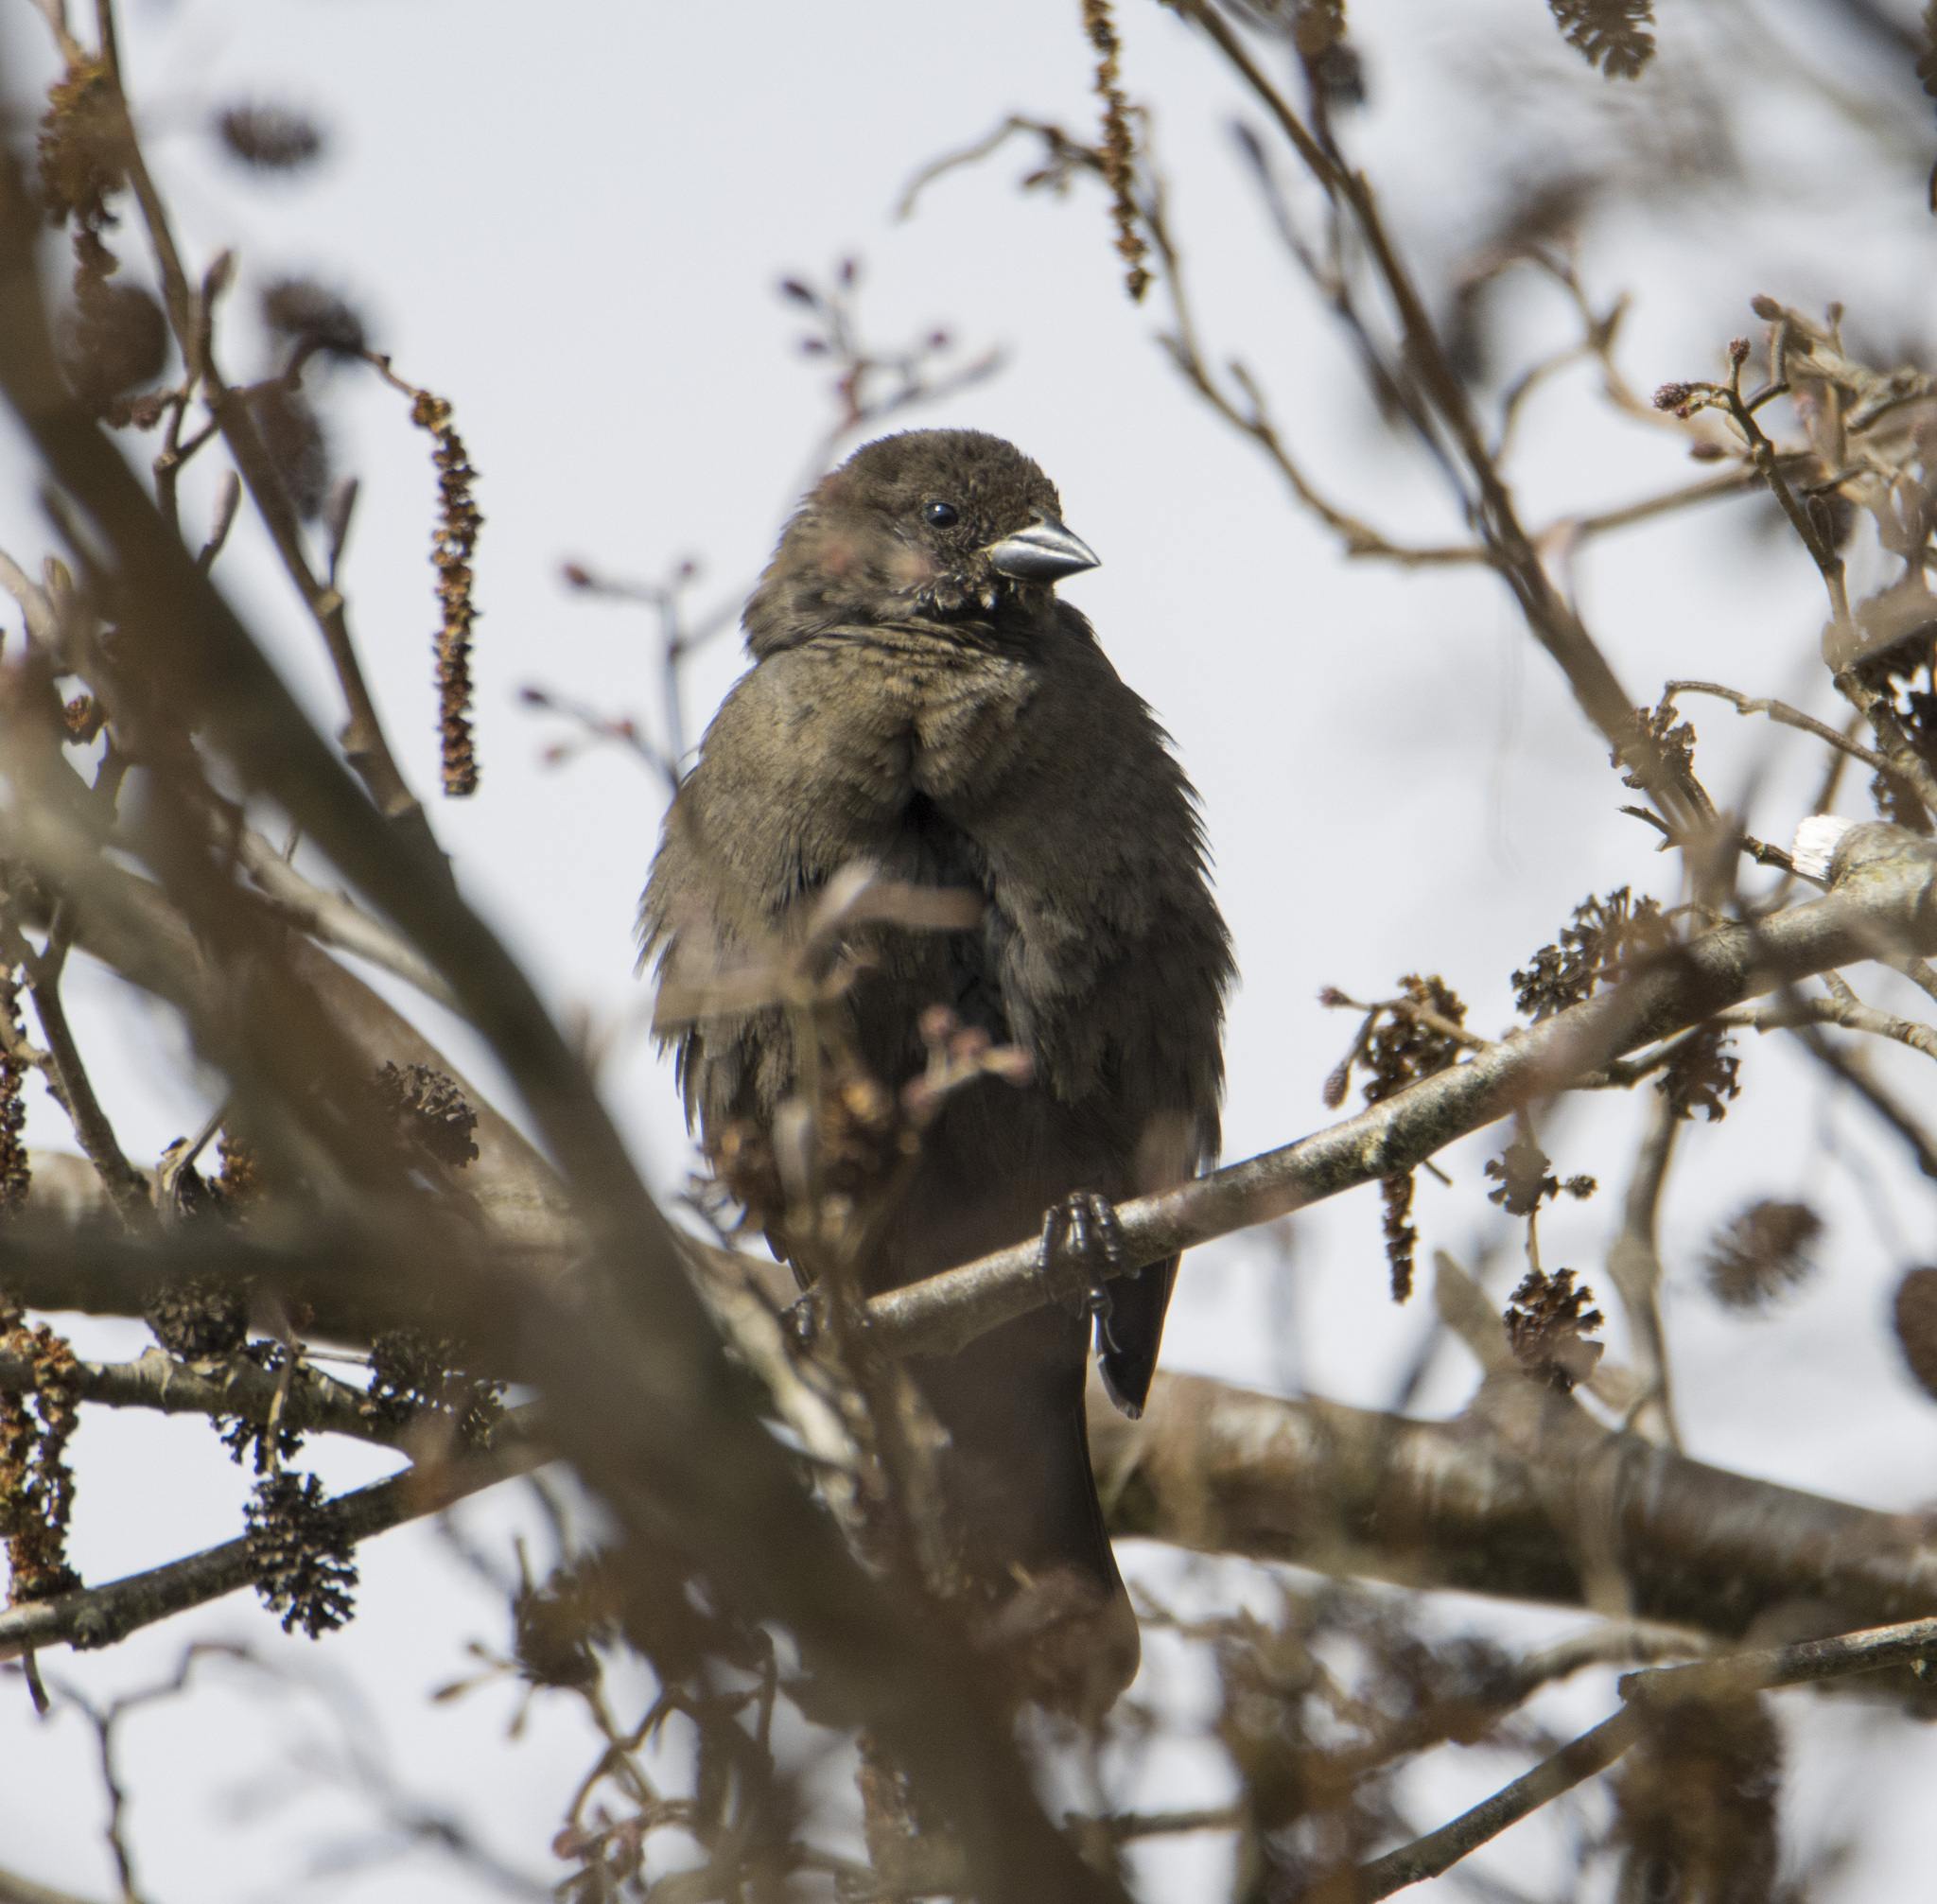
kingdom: Animalia
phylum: Chordata
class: Aves
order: Passeriformes
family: Icteridae
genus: Molothrus
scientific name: Molothrus bonariensis
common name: Shiny cowbird
